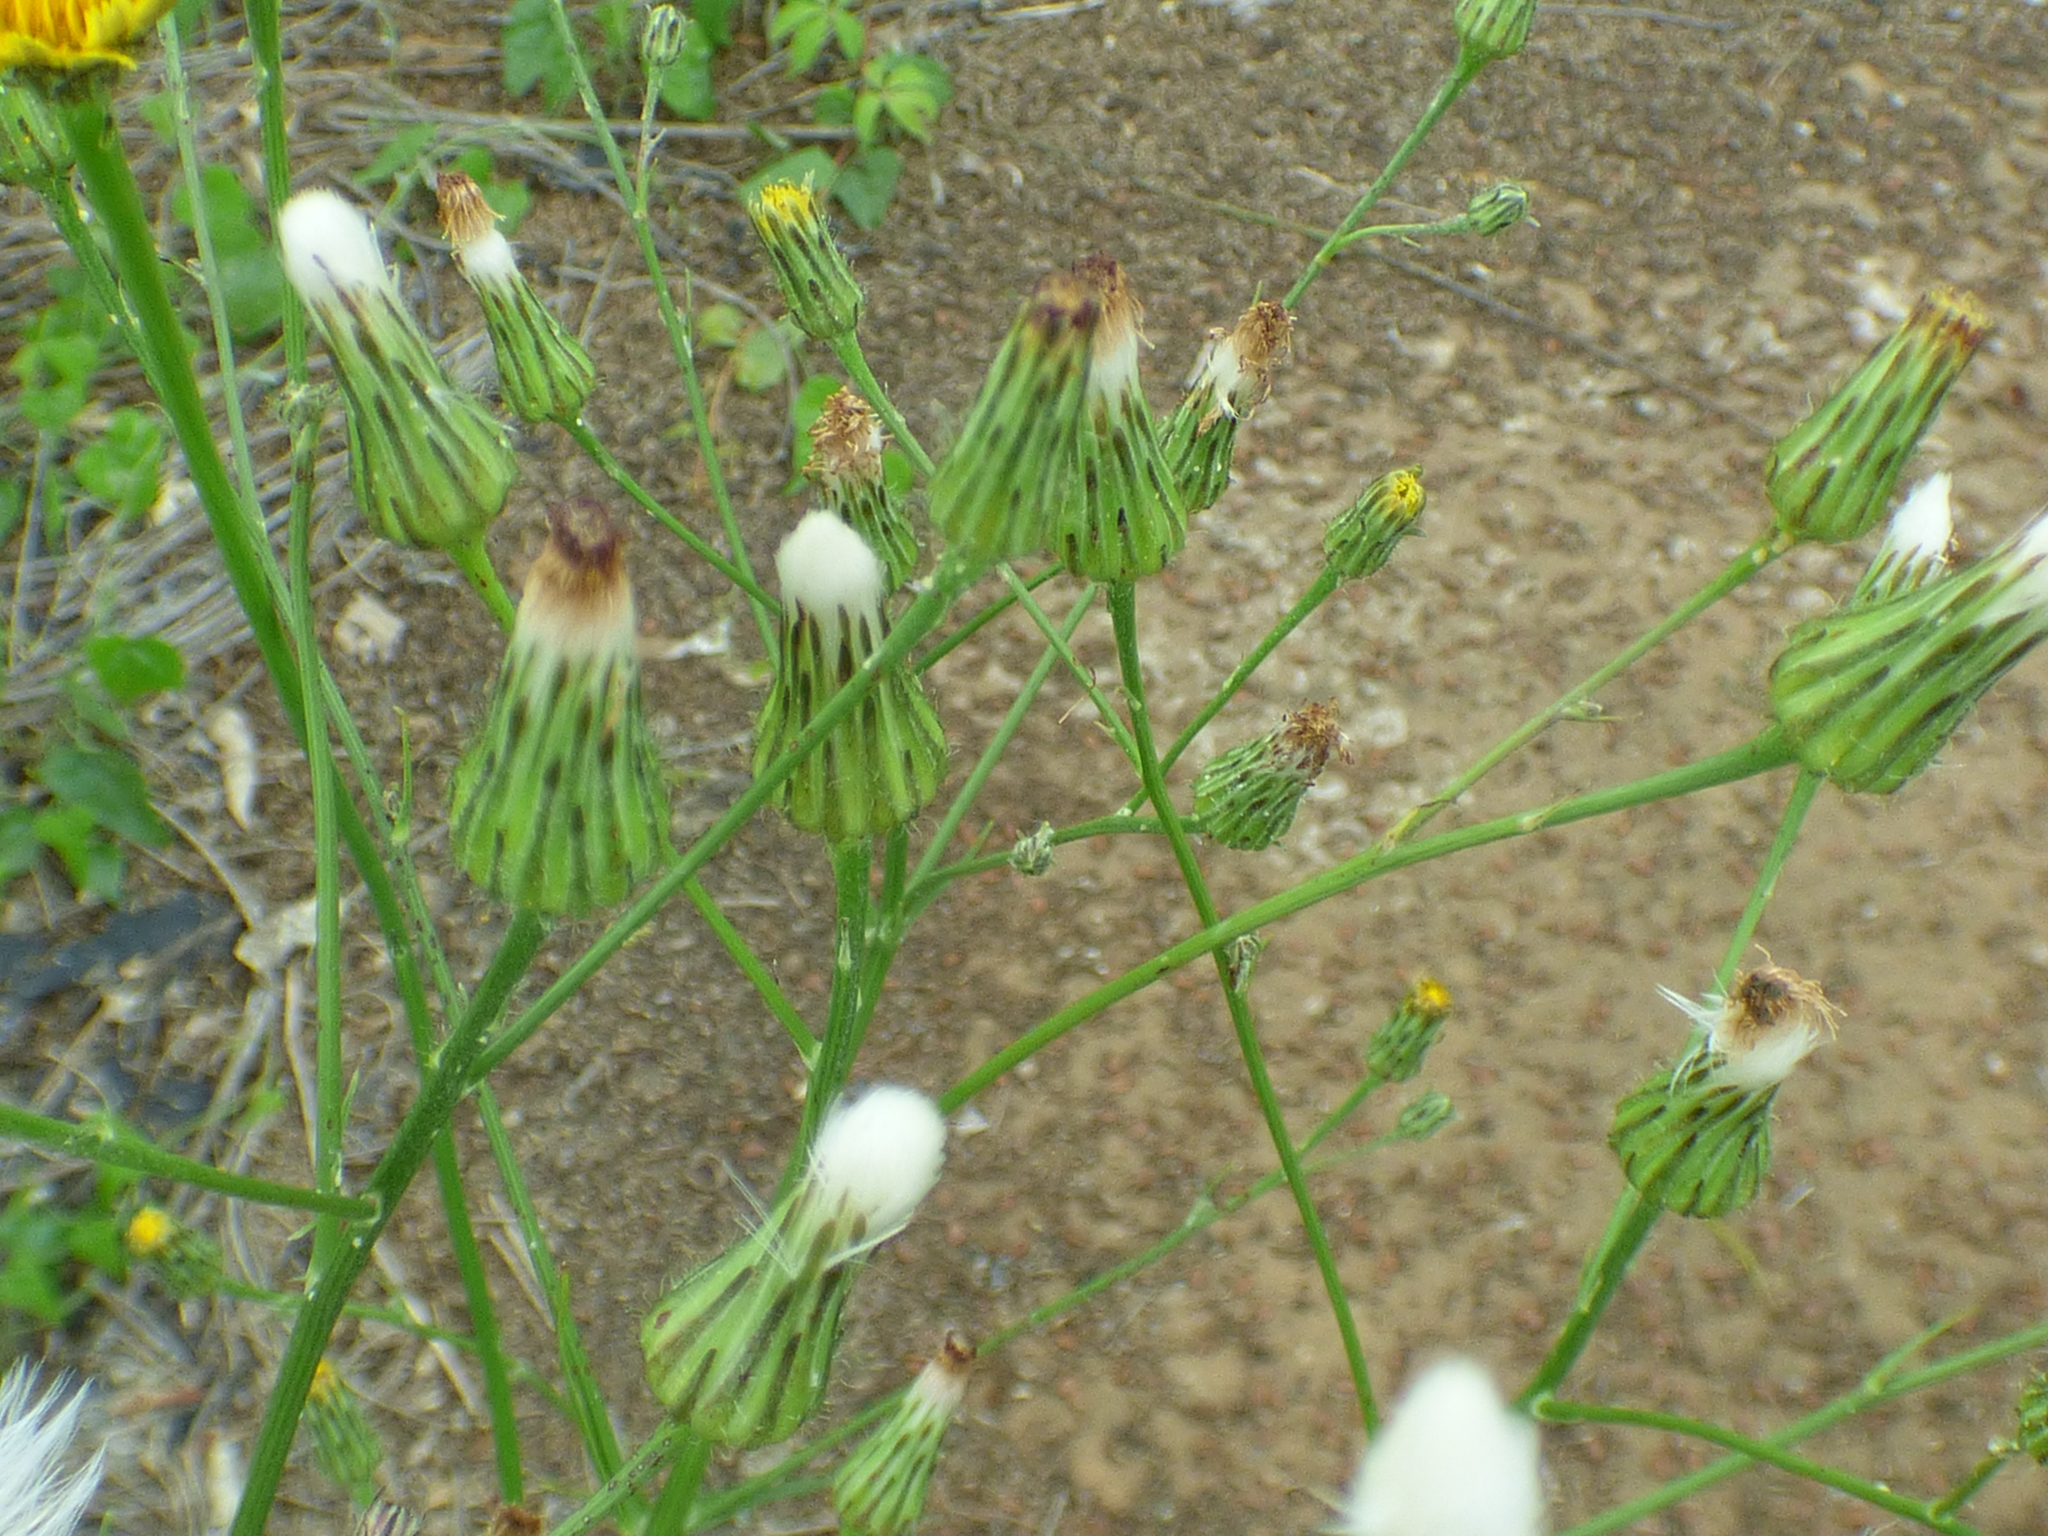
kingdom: Plantae
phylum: Tracheophyta
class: Magnoliopsida
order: Asterales
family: Asteraceae
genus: Hypochaeris
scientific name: Hypochaeris chillensis
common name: Brazilian cat's ear
